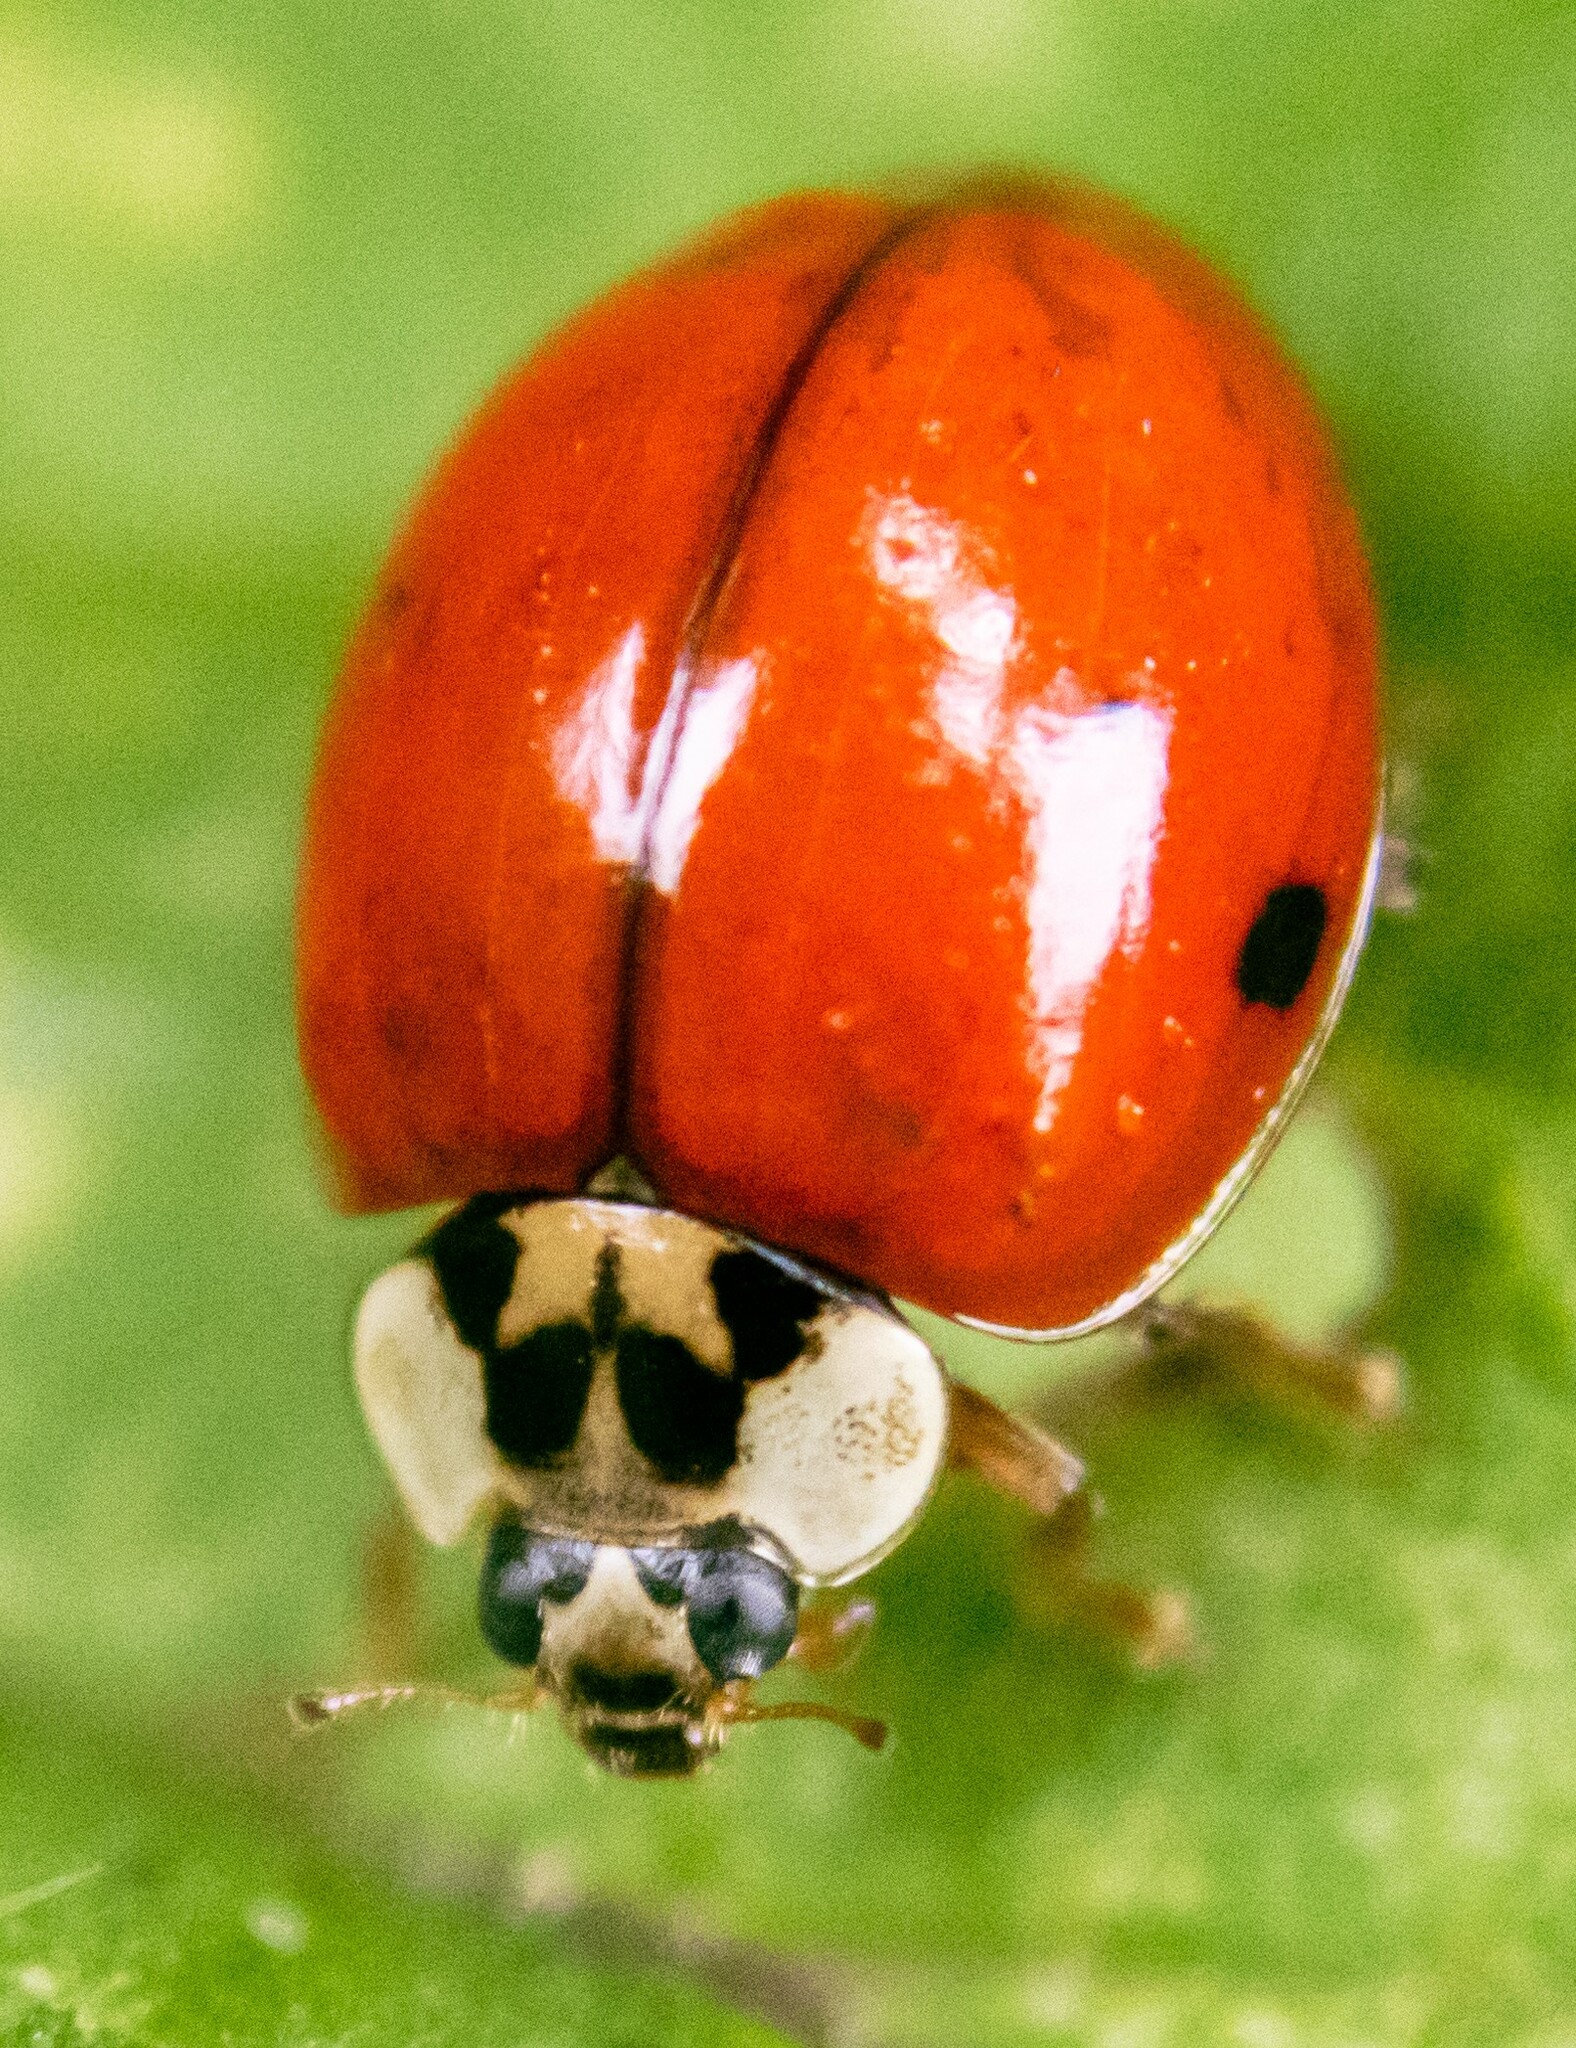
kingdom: Animalia
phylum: Arthropoda
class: Insecta
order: Coleoptera
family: Coccinellidae
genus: Harmonia
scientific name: Harmonia axyridis
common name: Harlequin ladybird
